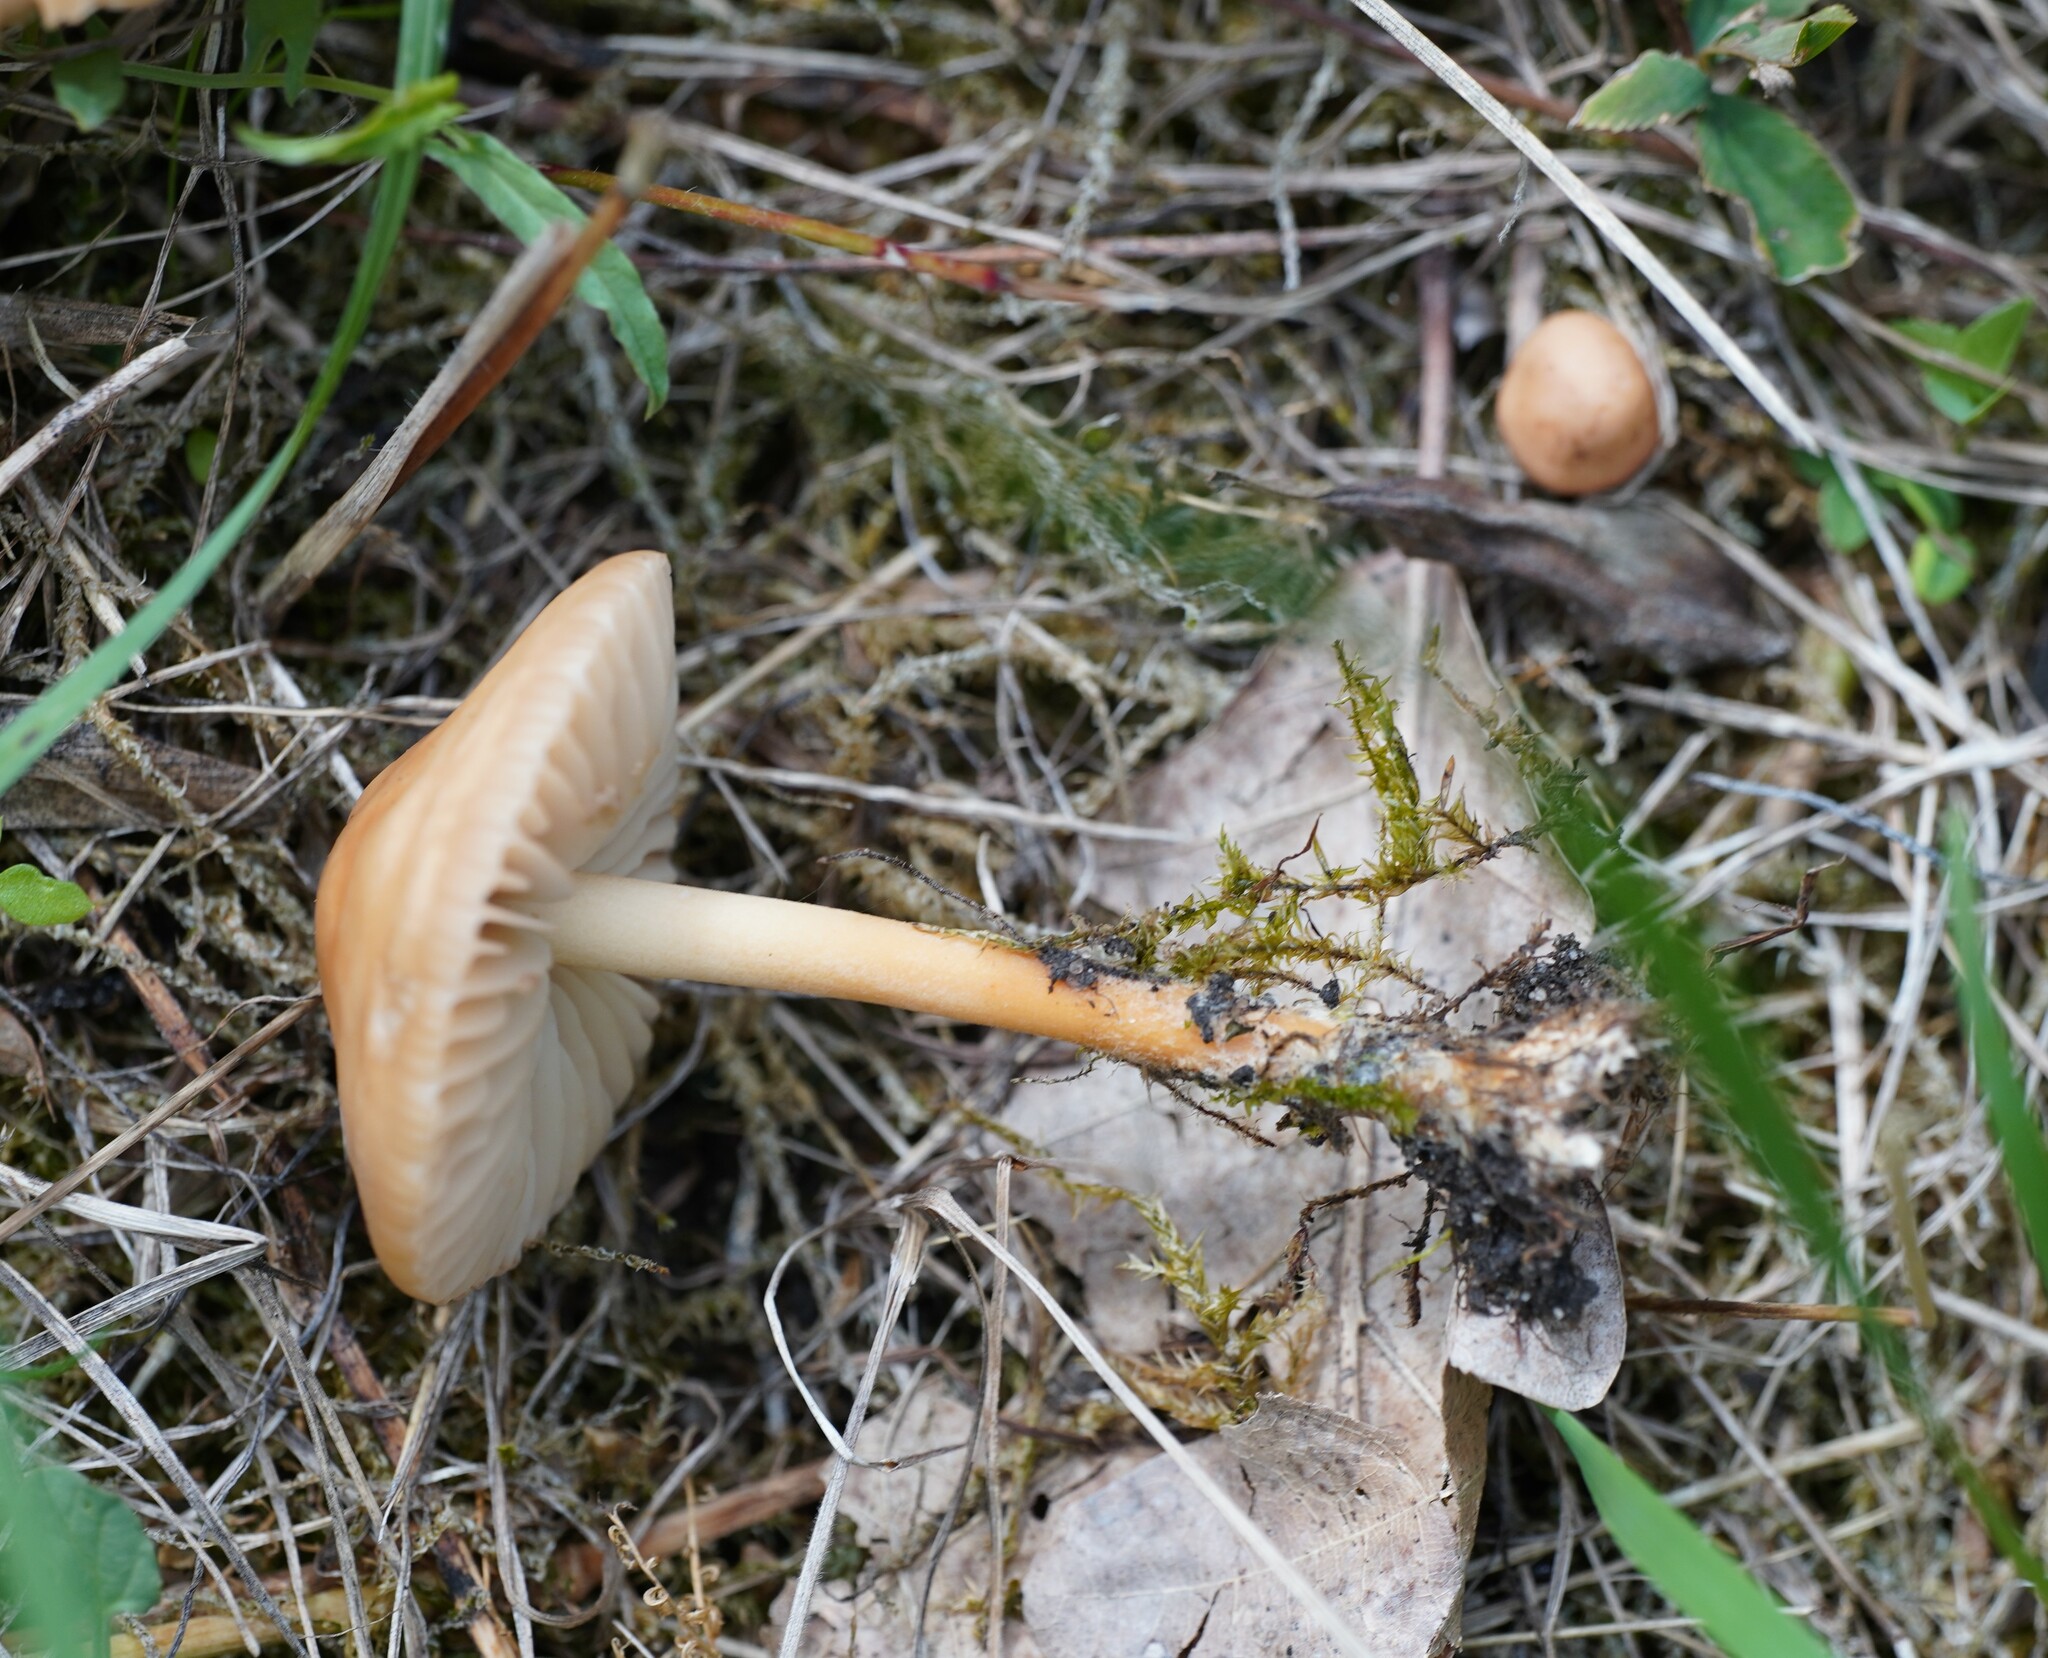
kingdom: Fungi
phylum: Basidiomycota
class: Agaricomycetes
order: Agaricales
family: Marasmiaceae
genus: Marasmius
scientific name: Marasmius oreades
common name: Fairy ring champignon
